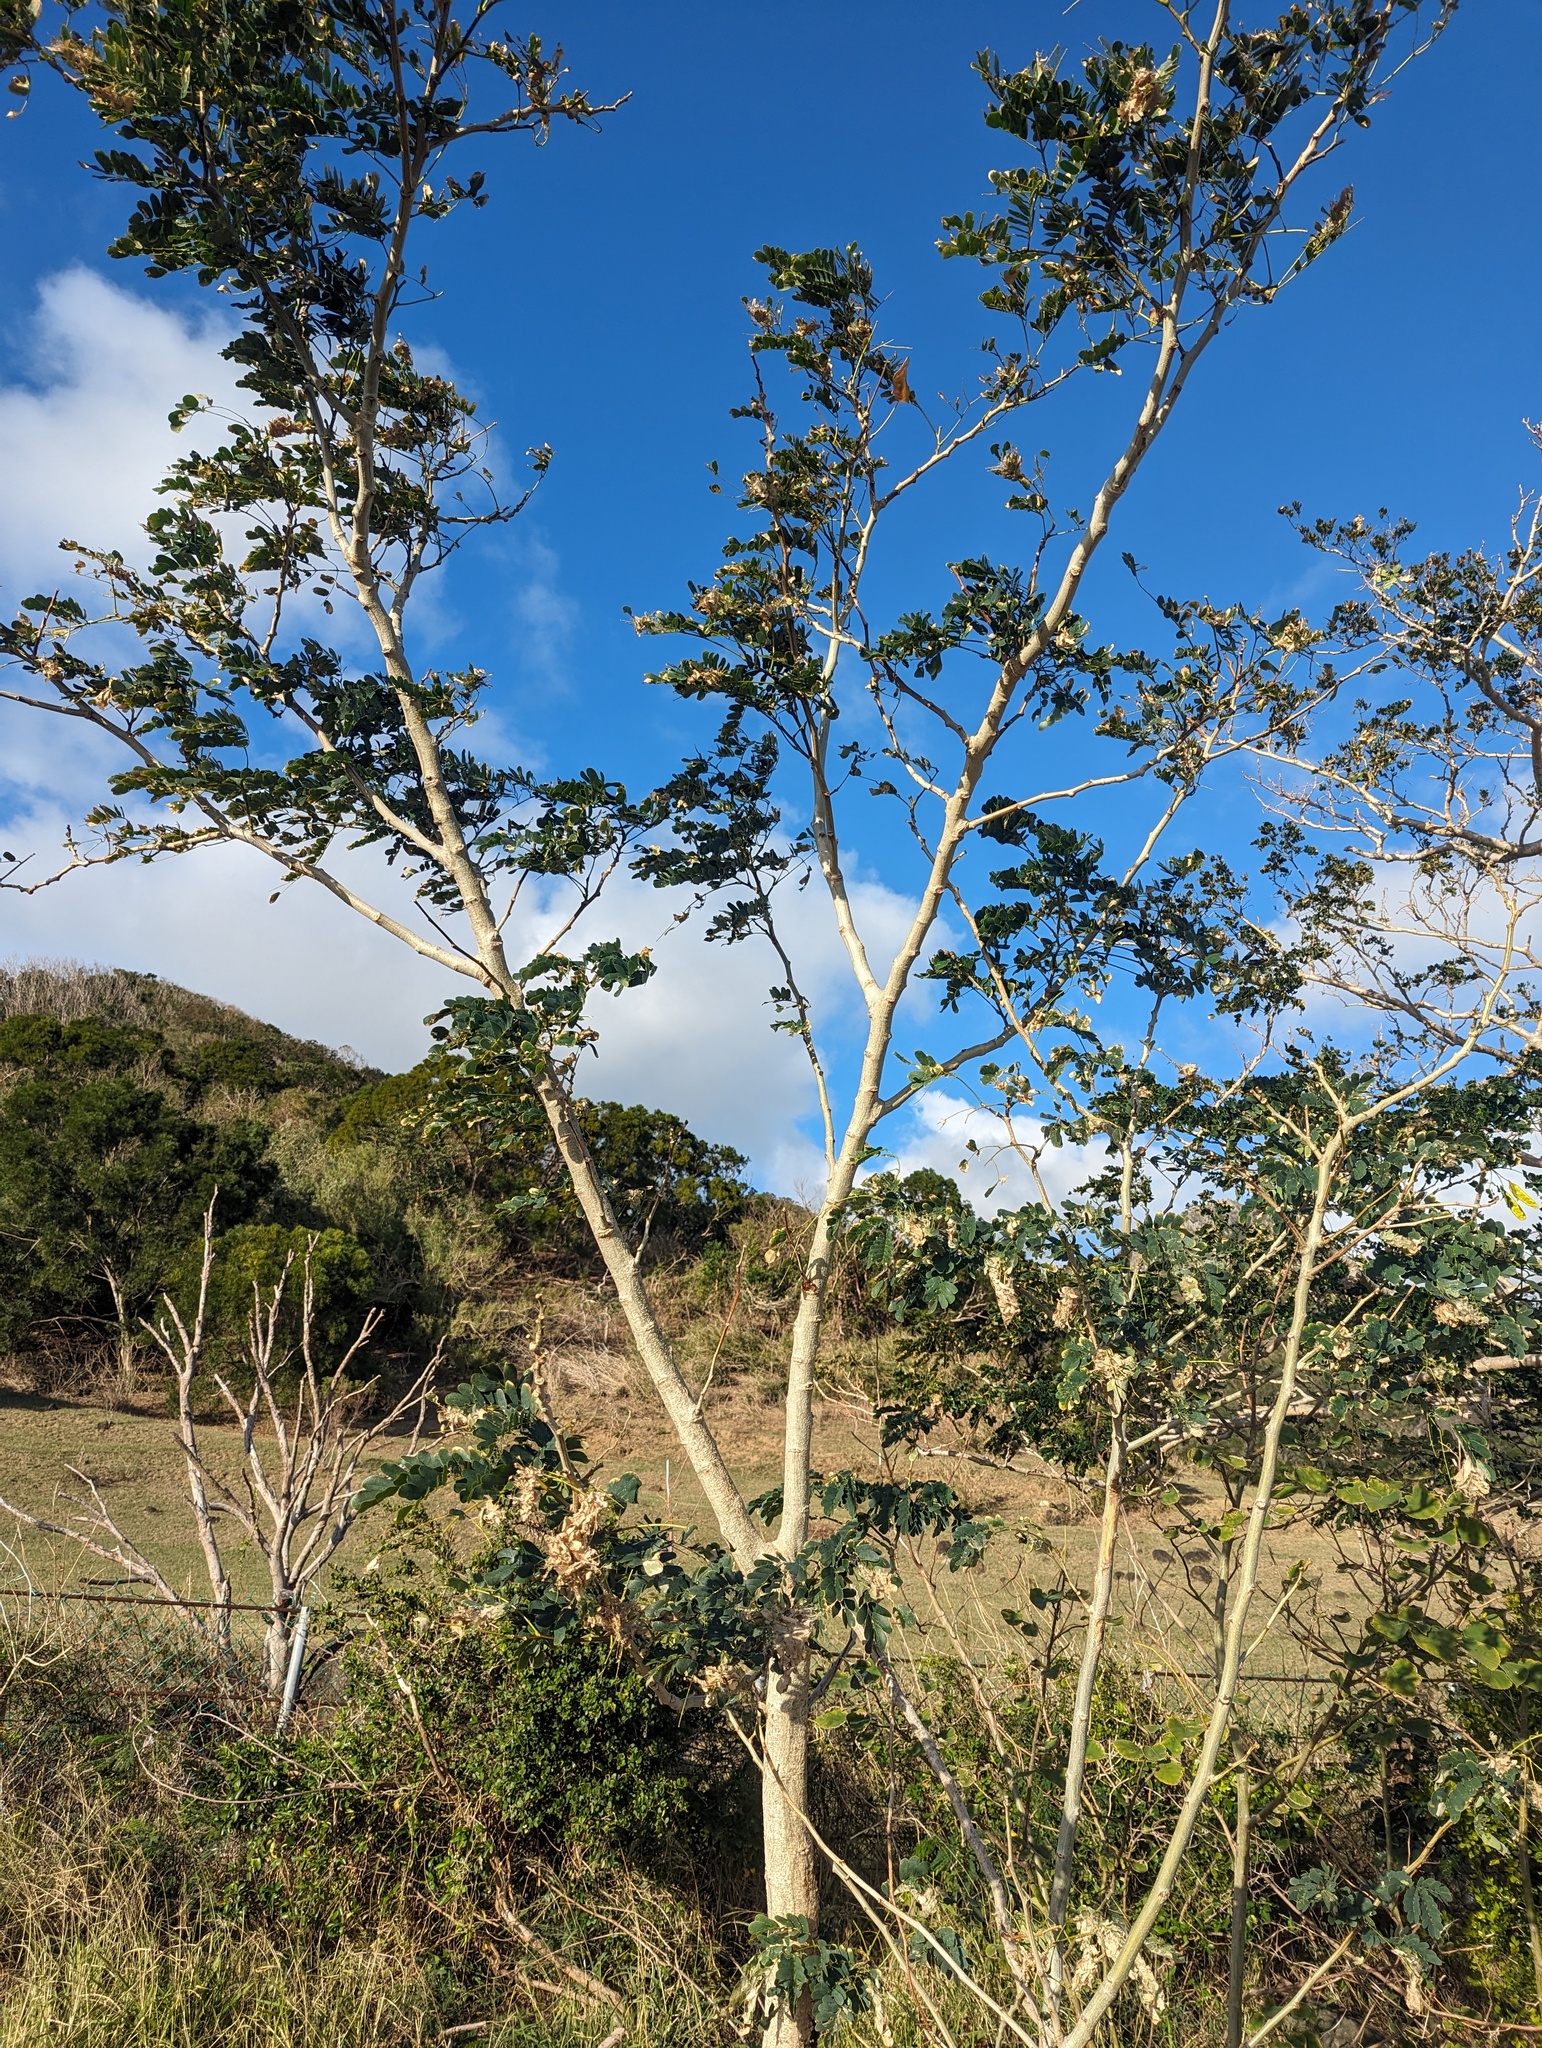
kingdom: Plantae
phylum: Tracheophyta
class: Magnoliopsida
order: Fabales
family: Fabaceae
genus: Albizia
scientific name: Albizia lebbeck
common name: Woman's tongue
